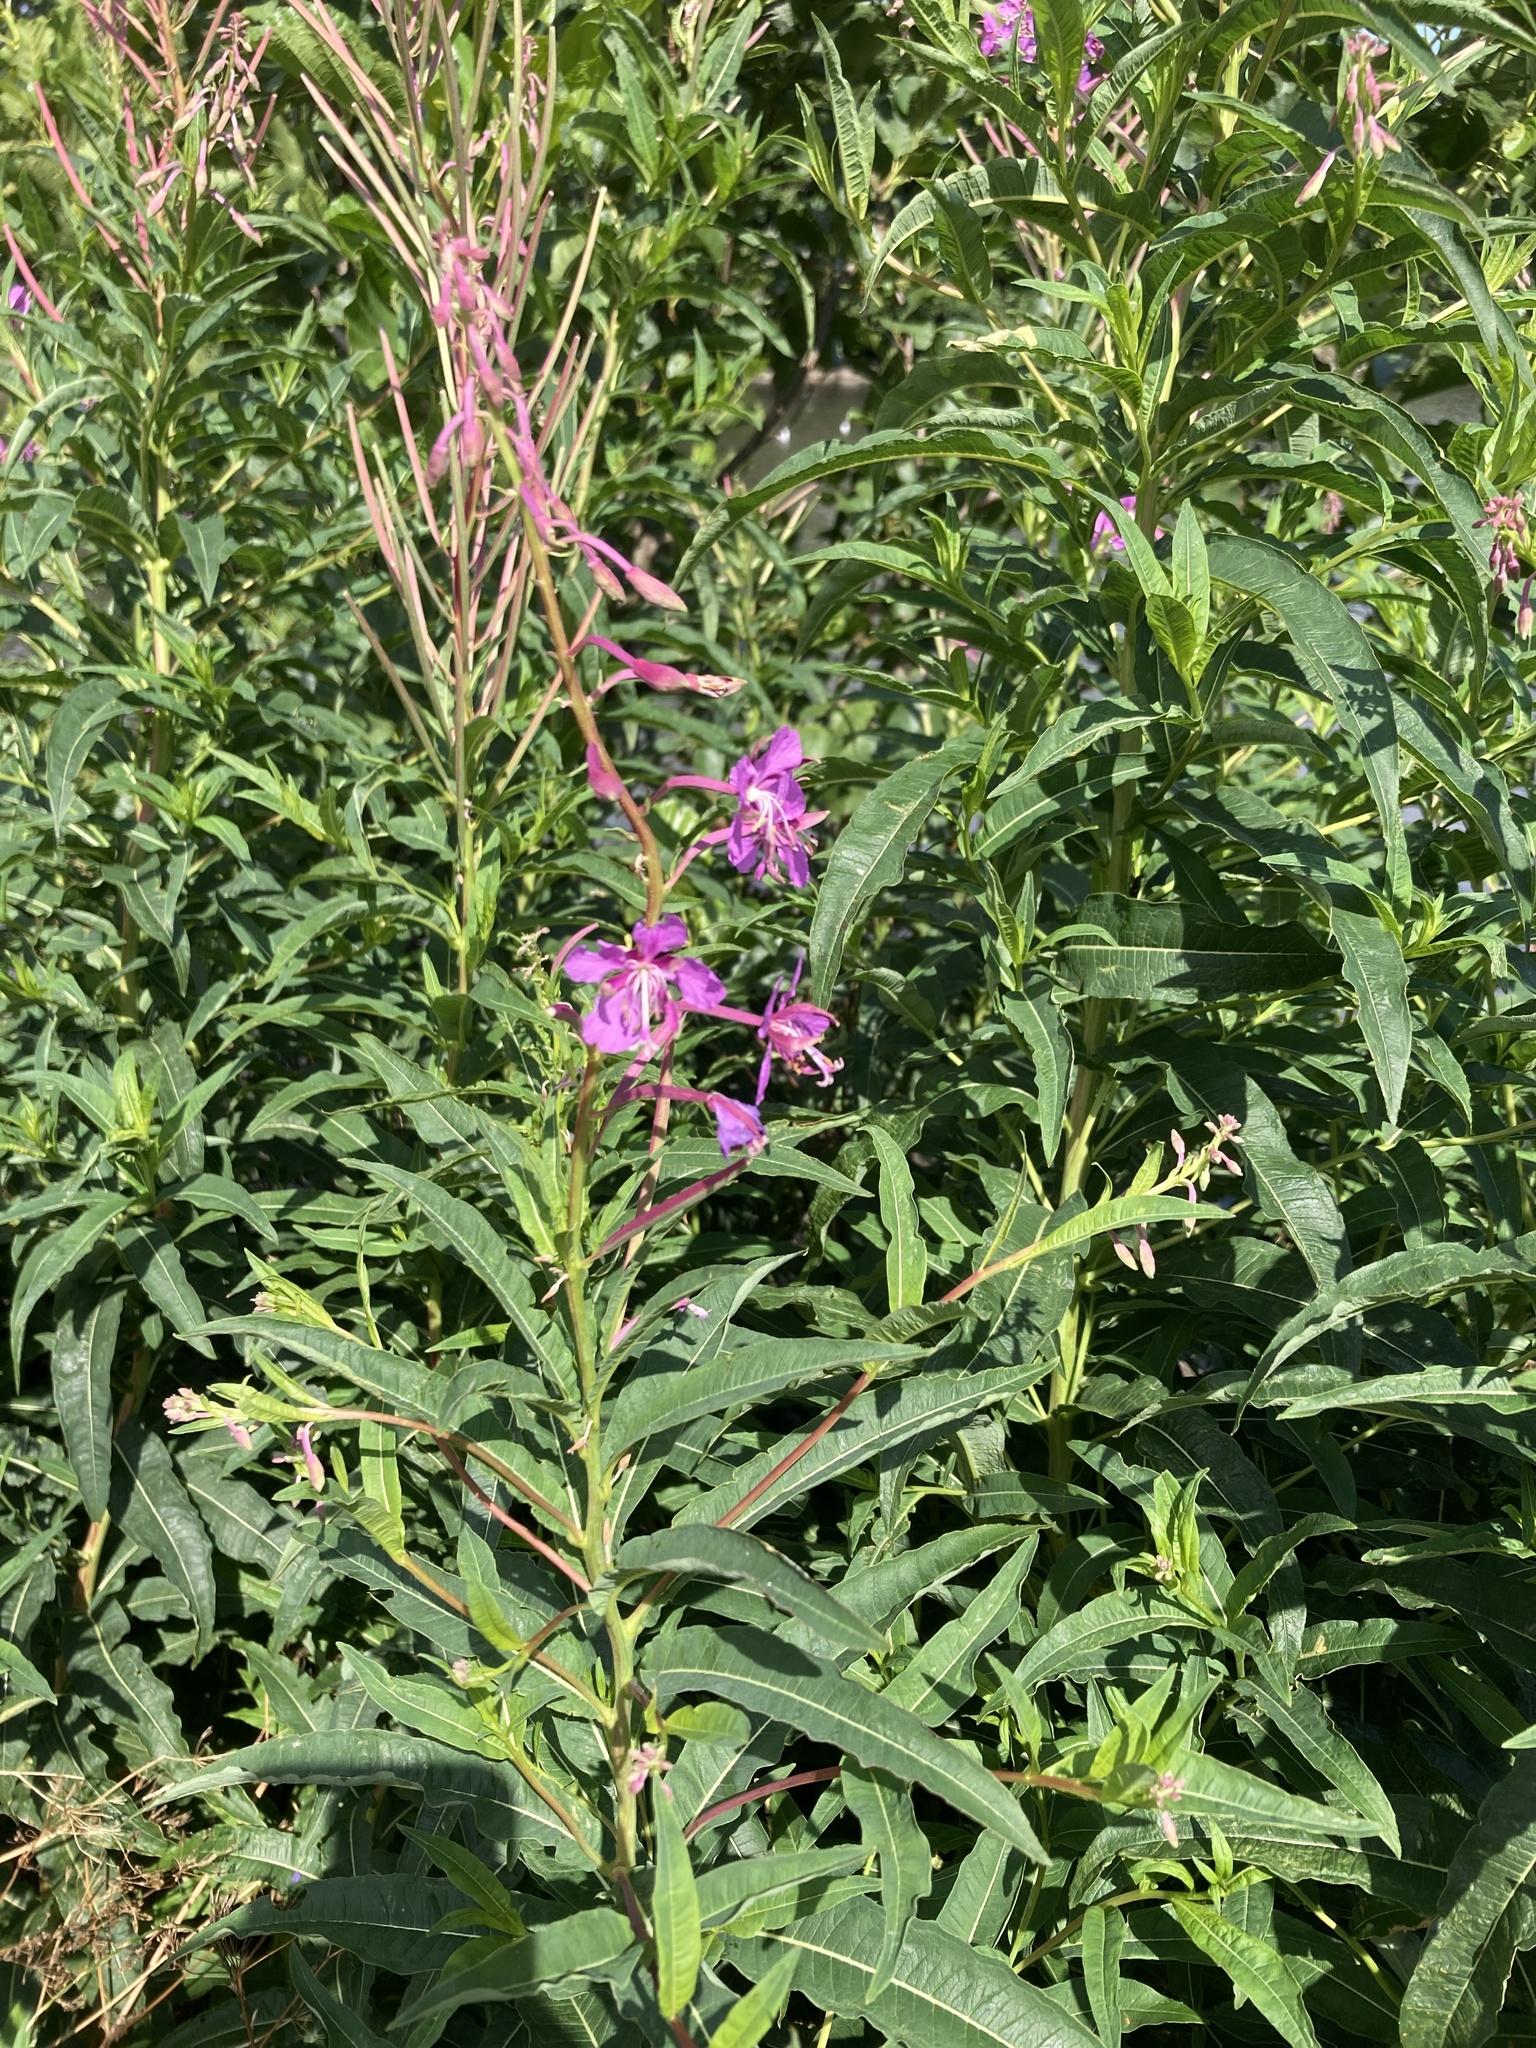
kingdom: Plantae
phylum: Tracheophyta
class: Magnoliopsida
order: Myrtales
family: Onagraceae
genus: Chamaenerion
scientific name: Chamaenerion angustifolium
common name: Fireweed
